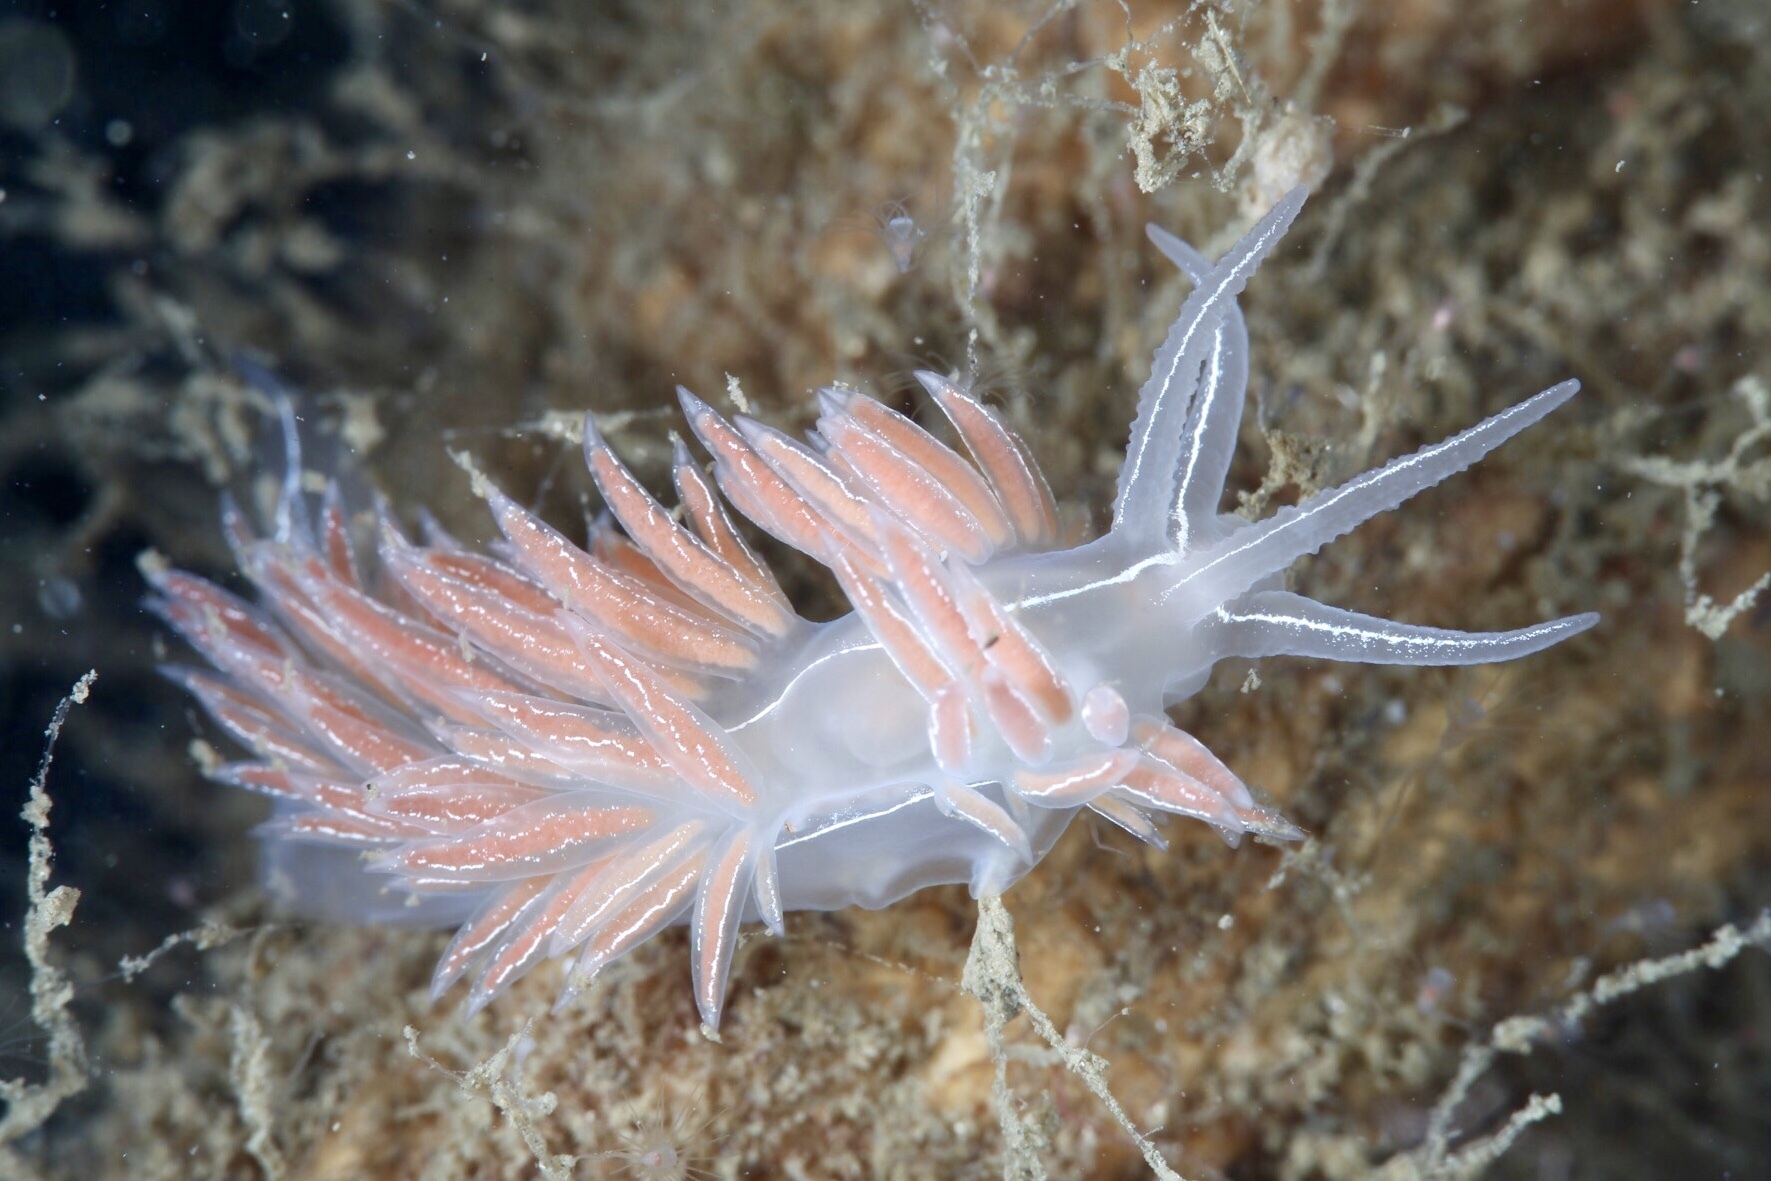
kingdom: Animalia
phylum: Mollusca
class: Gastropoda
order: Nudibranchia
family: Coryphellidae
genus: Coryphella
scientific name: Coryphella chriskaugei
